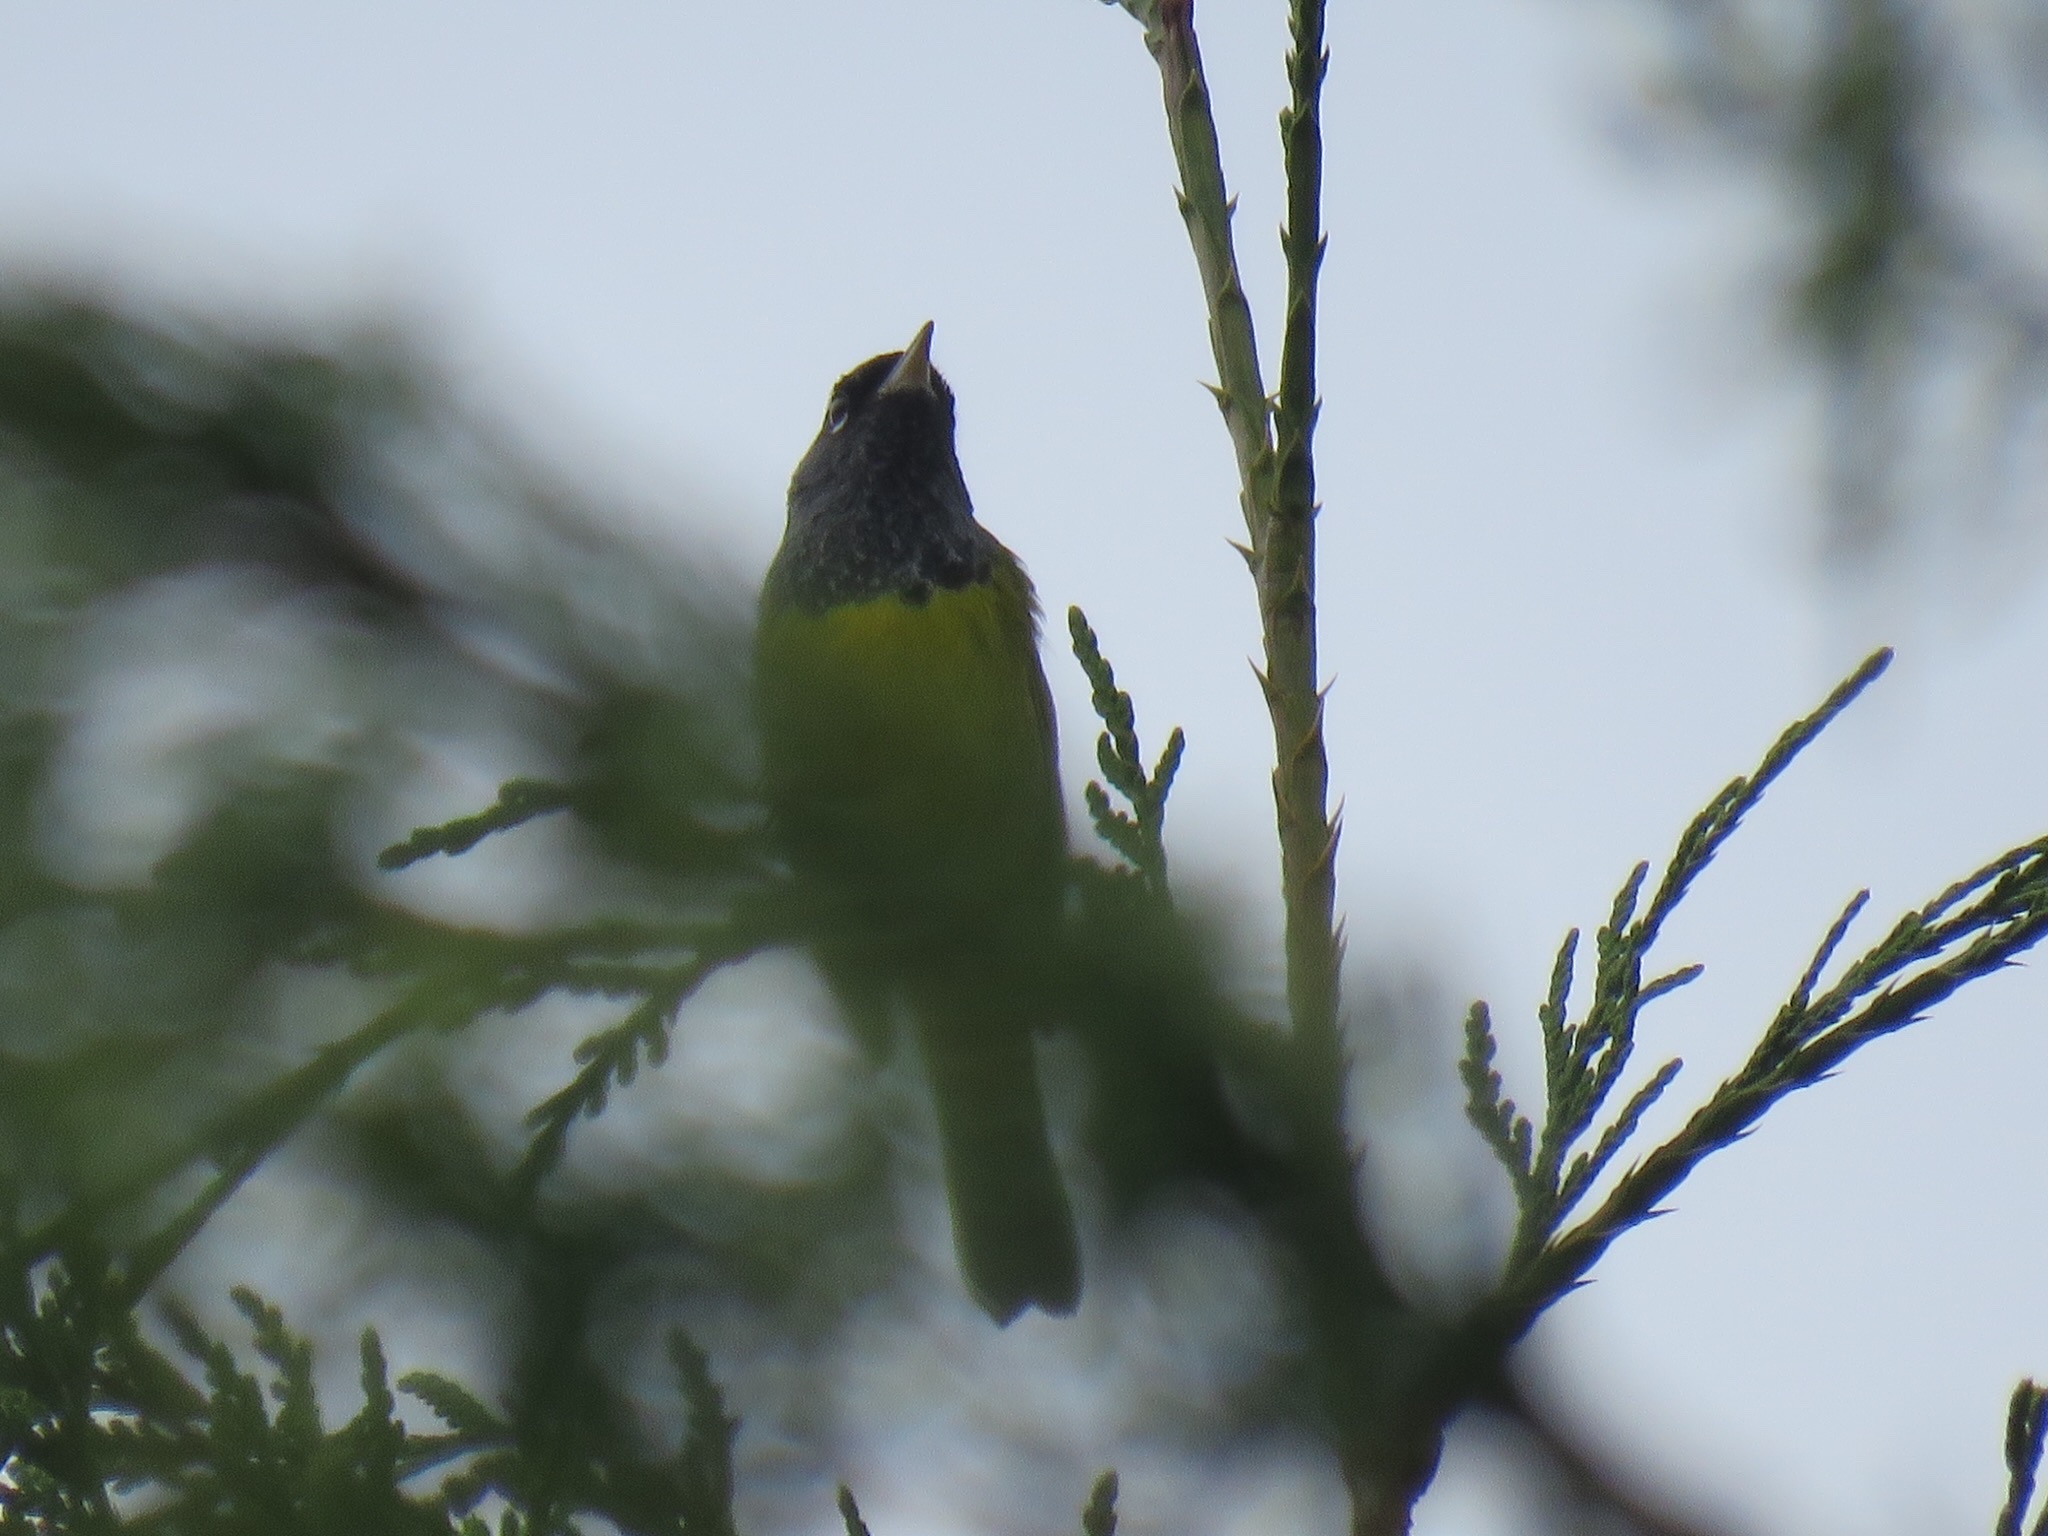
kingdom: Animalia
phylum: Chordata
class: Aves
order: Passeriformes
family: Parulidae
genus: Geothlypis
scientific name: Geothlypis tolmiei
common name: Macgillivray's warbler
